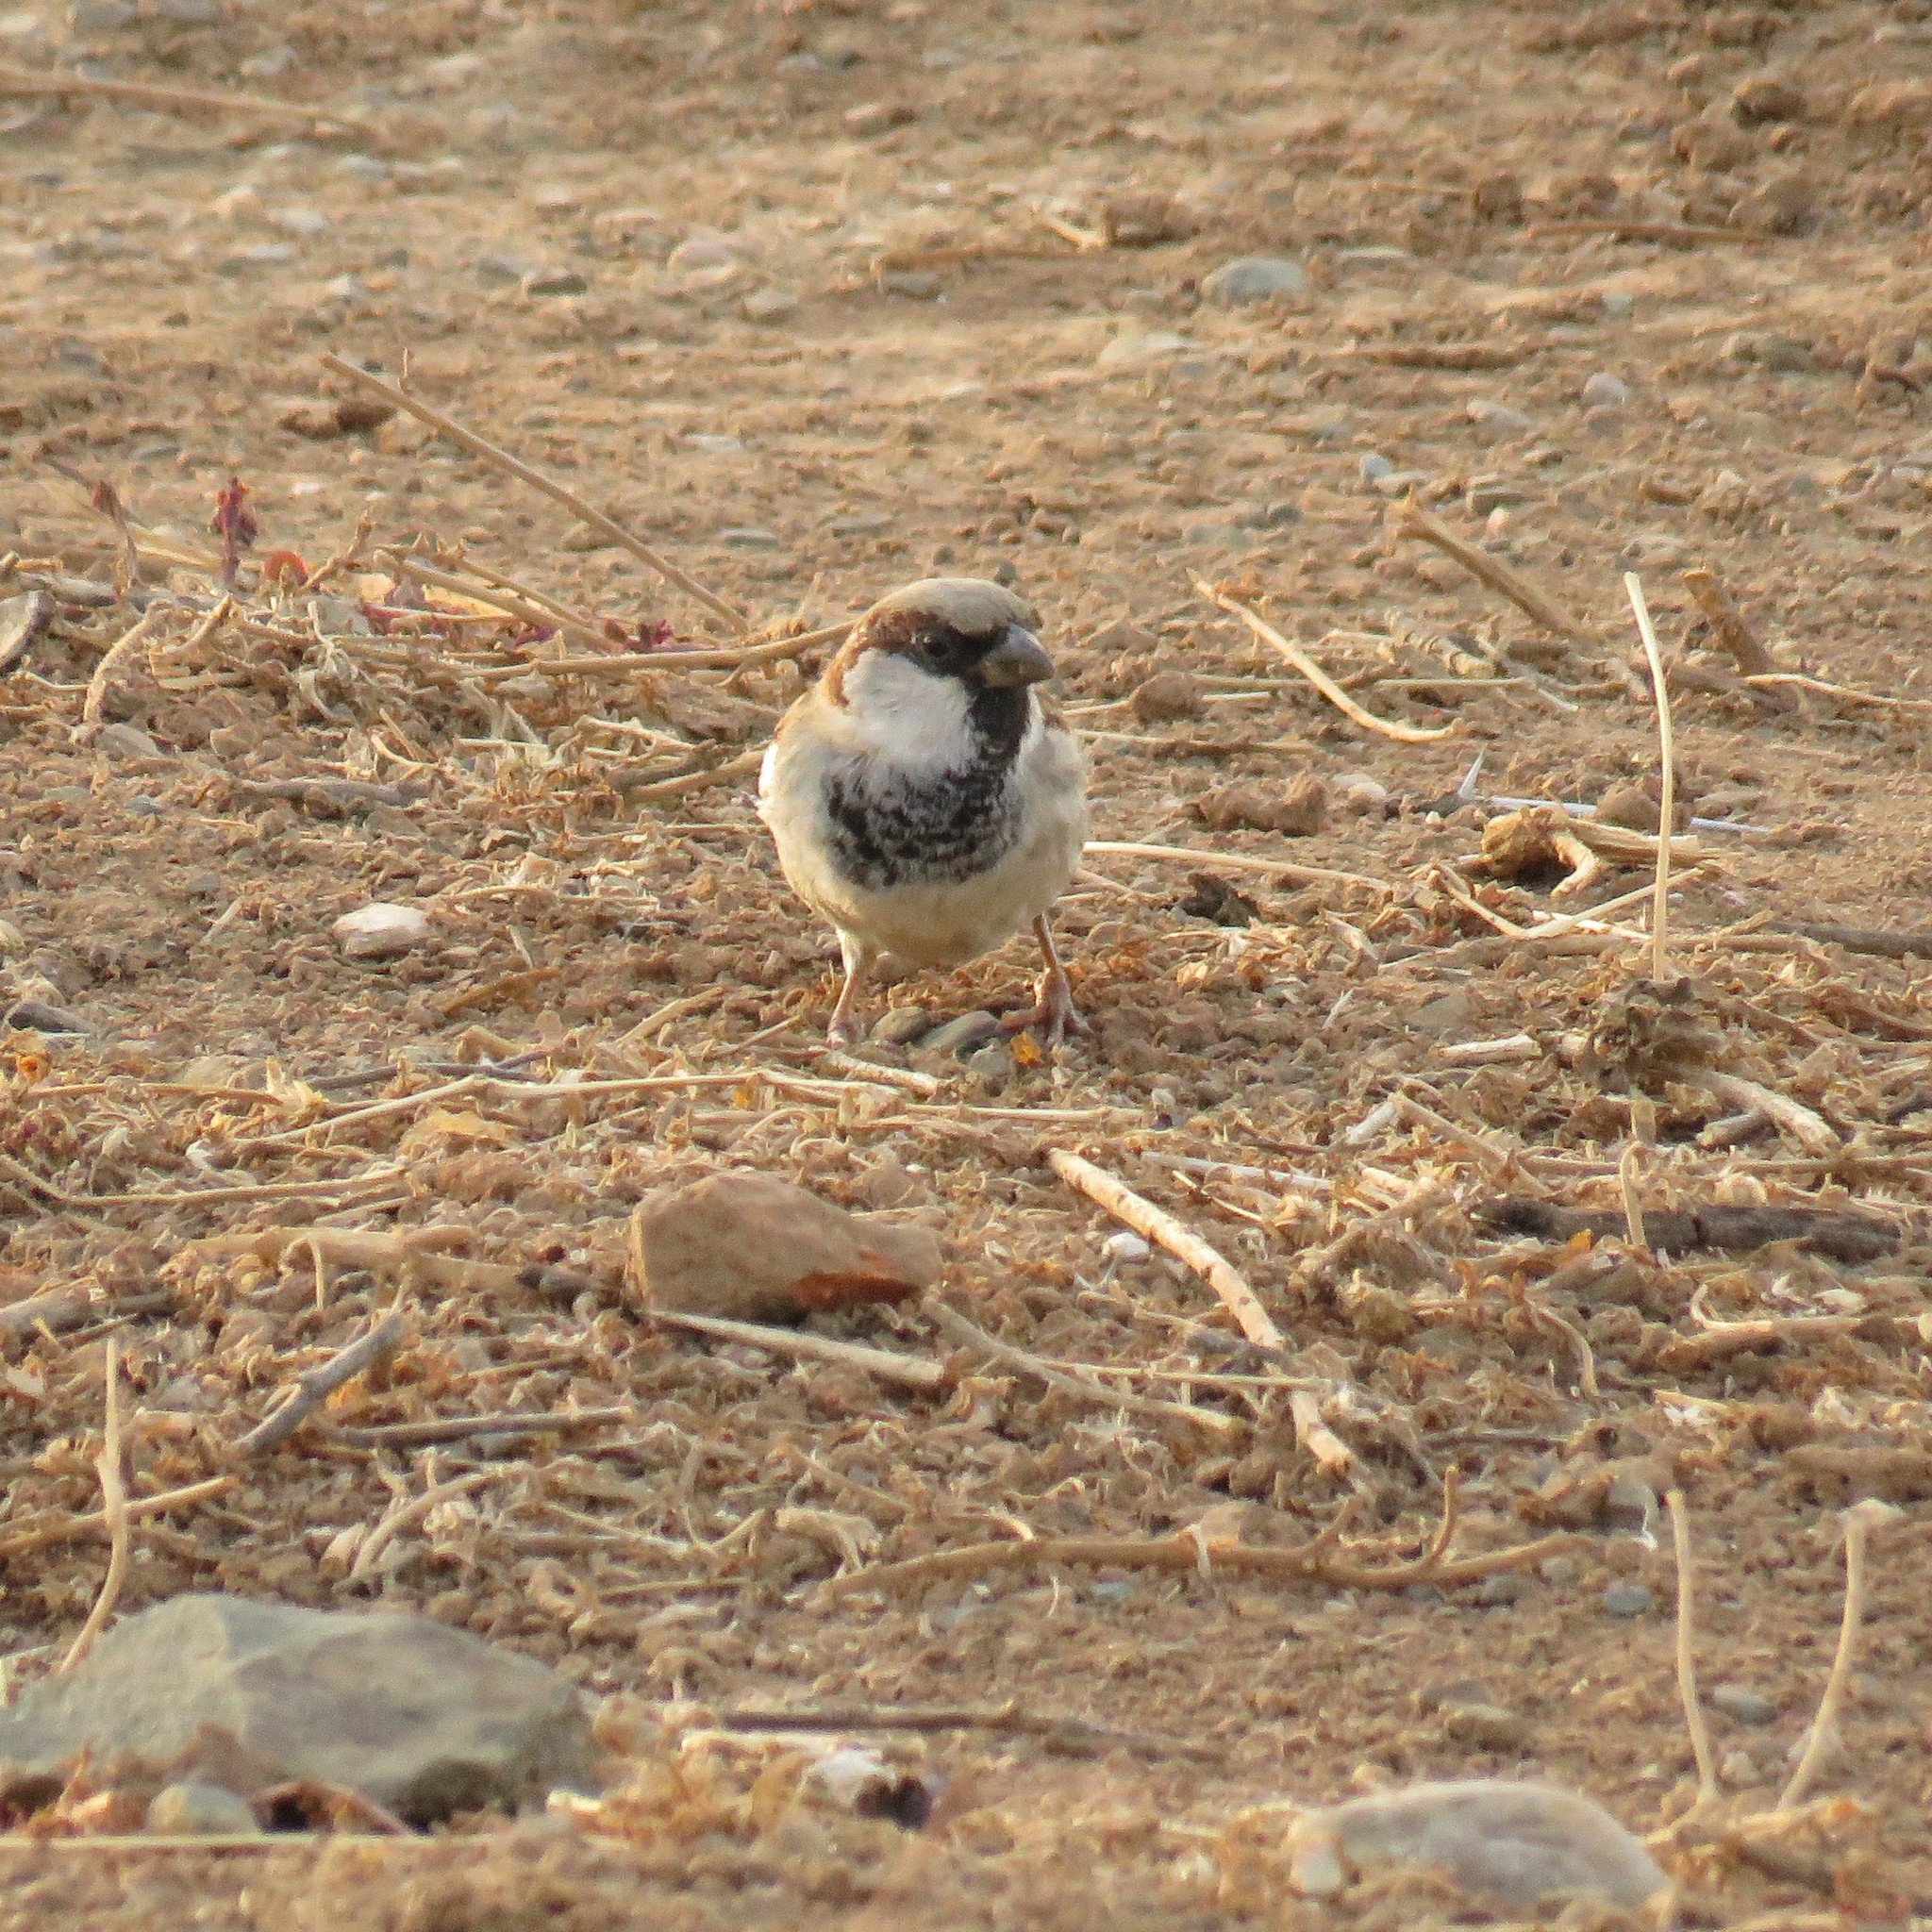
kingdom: Animalia
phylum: Chordata
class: Aves
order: Passeriformes
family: Passeridae
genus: Passer
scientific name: Passer domesticus
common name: House sparrow
